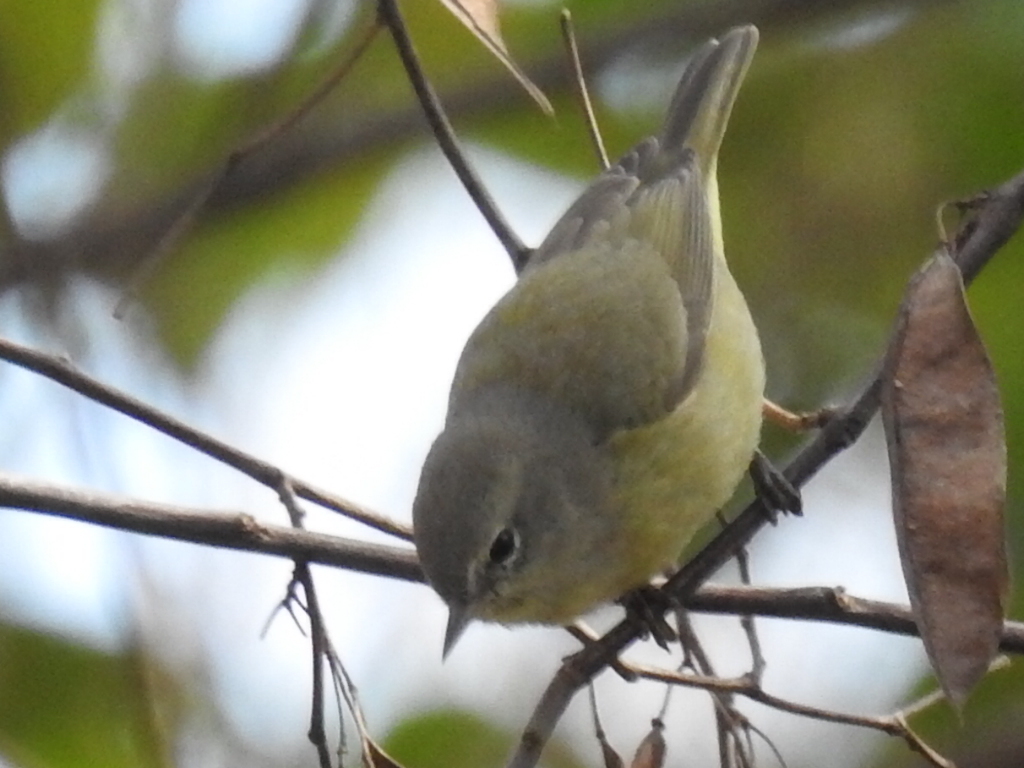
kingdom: Animalia
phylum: Chordata
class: Aves
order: Passeriformes
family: Parulidae
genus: Leiothlypis
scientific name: Leiothlypis celata
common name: Orange-crowned warbler
